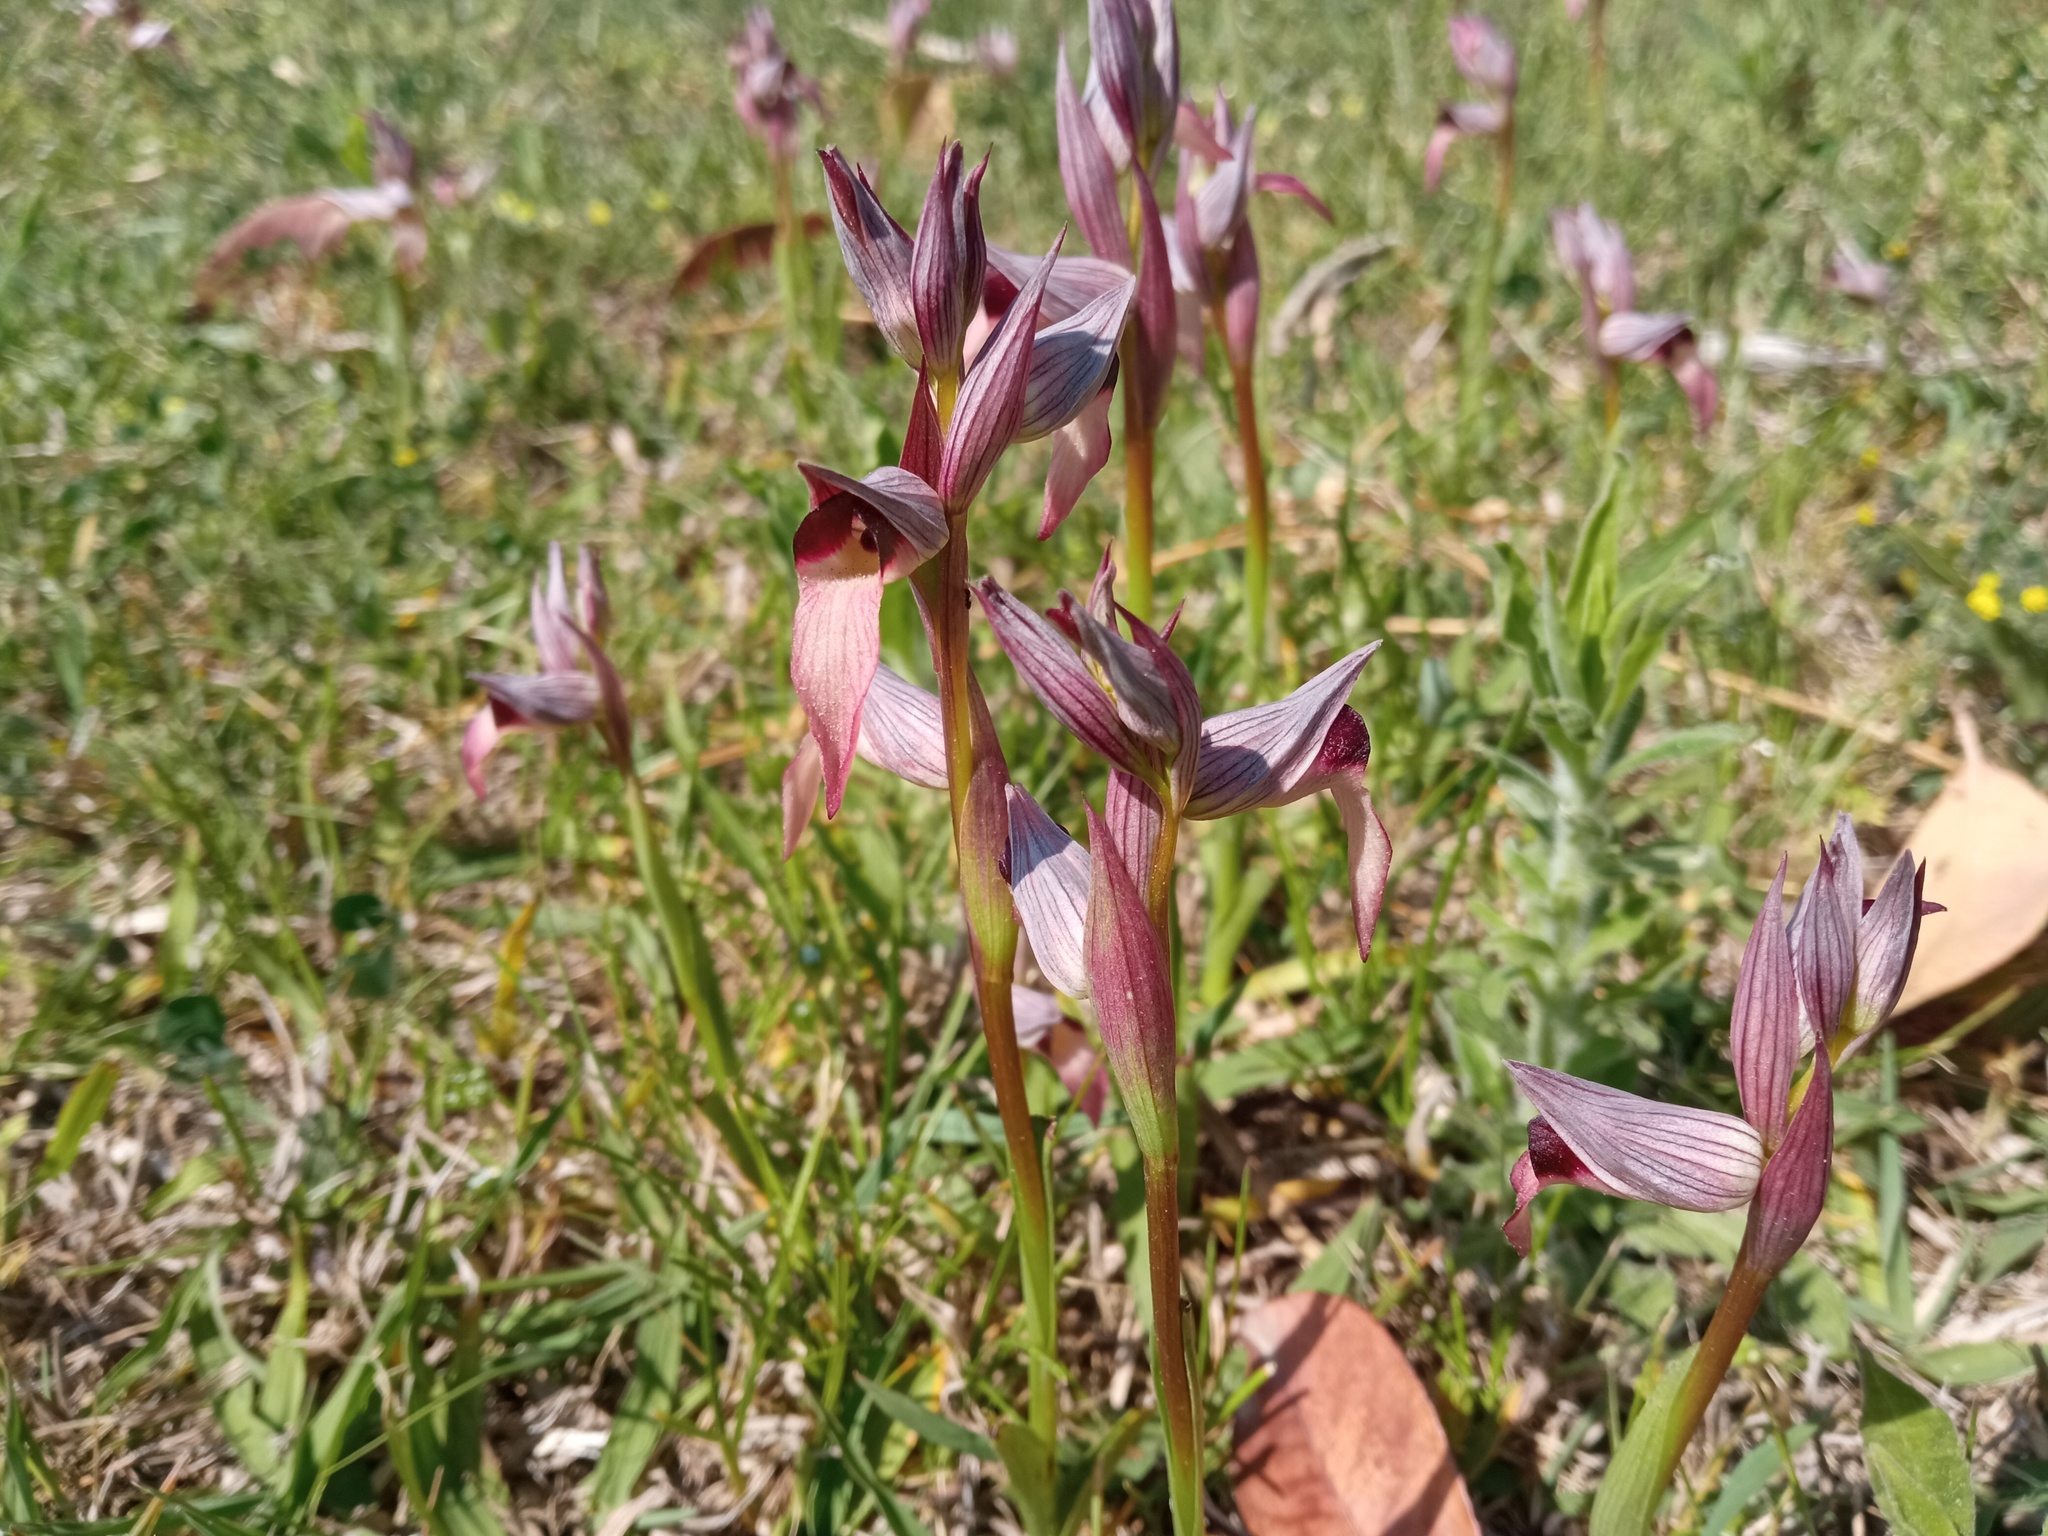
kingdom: Plantae
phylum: Tracheophyta
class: Liliopsida
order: Asparagales
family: Orchidaceae
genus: Serapias
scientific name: Serapias lingua
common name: Tongue-orchid
